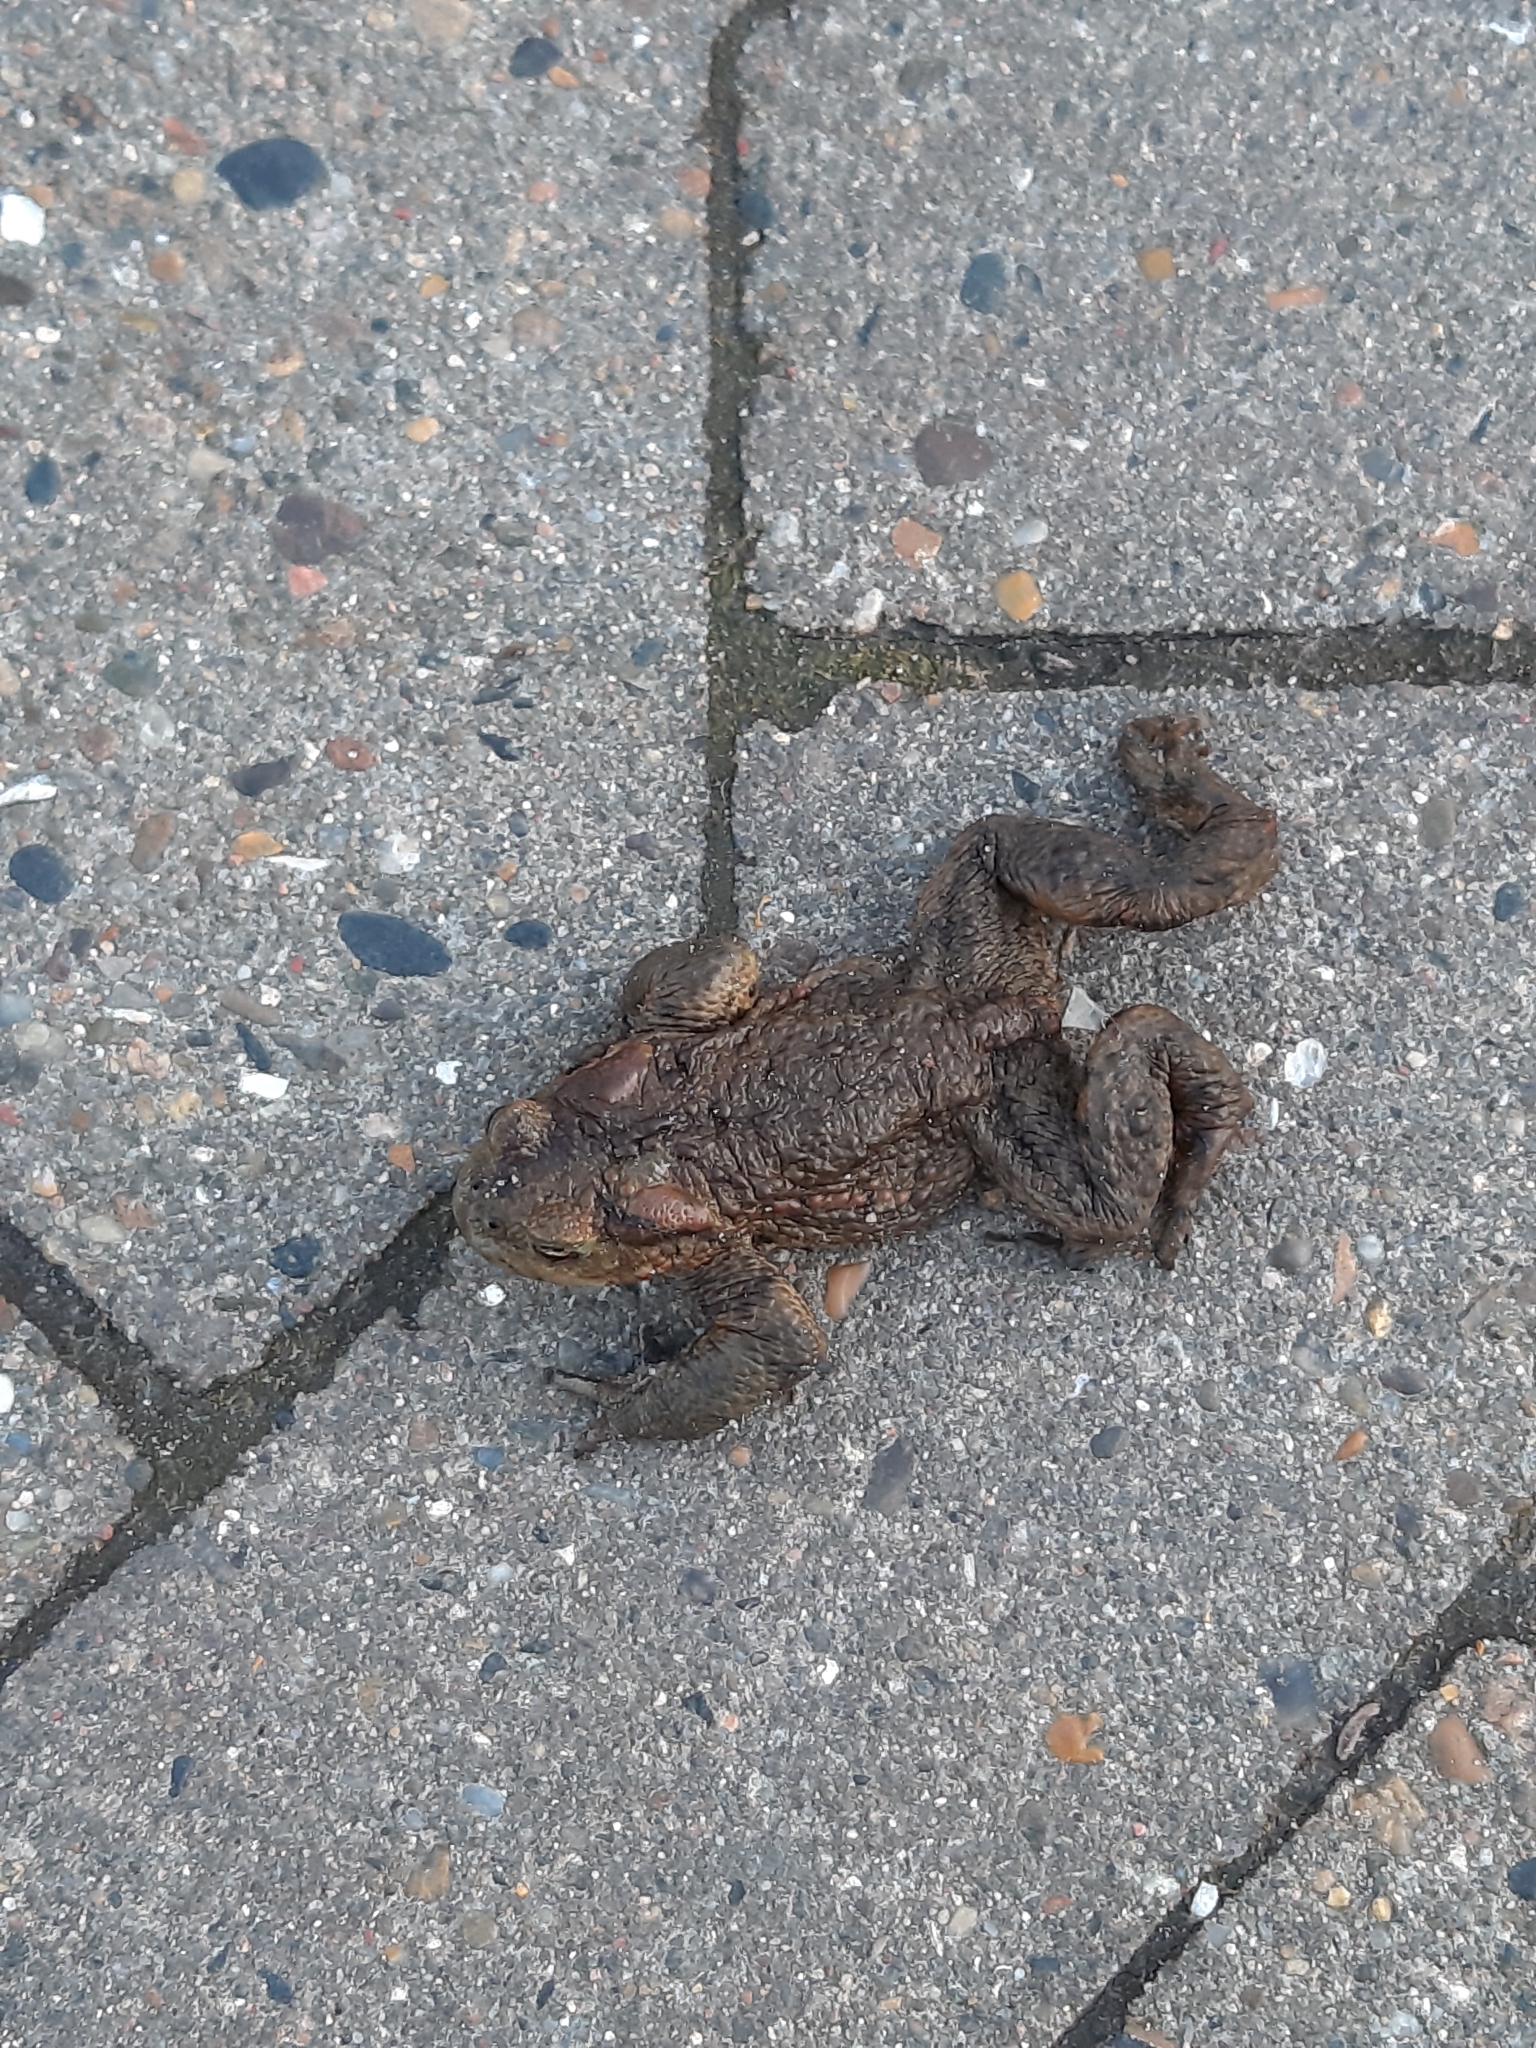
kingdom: Animalia
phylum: Chordata
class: Amphibia
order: Anura
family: Bufonidae
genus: Bufo
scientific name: Bufo bufo
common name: Common toad
